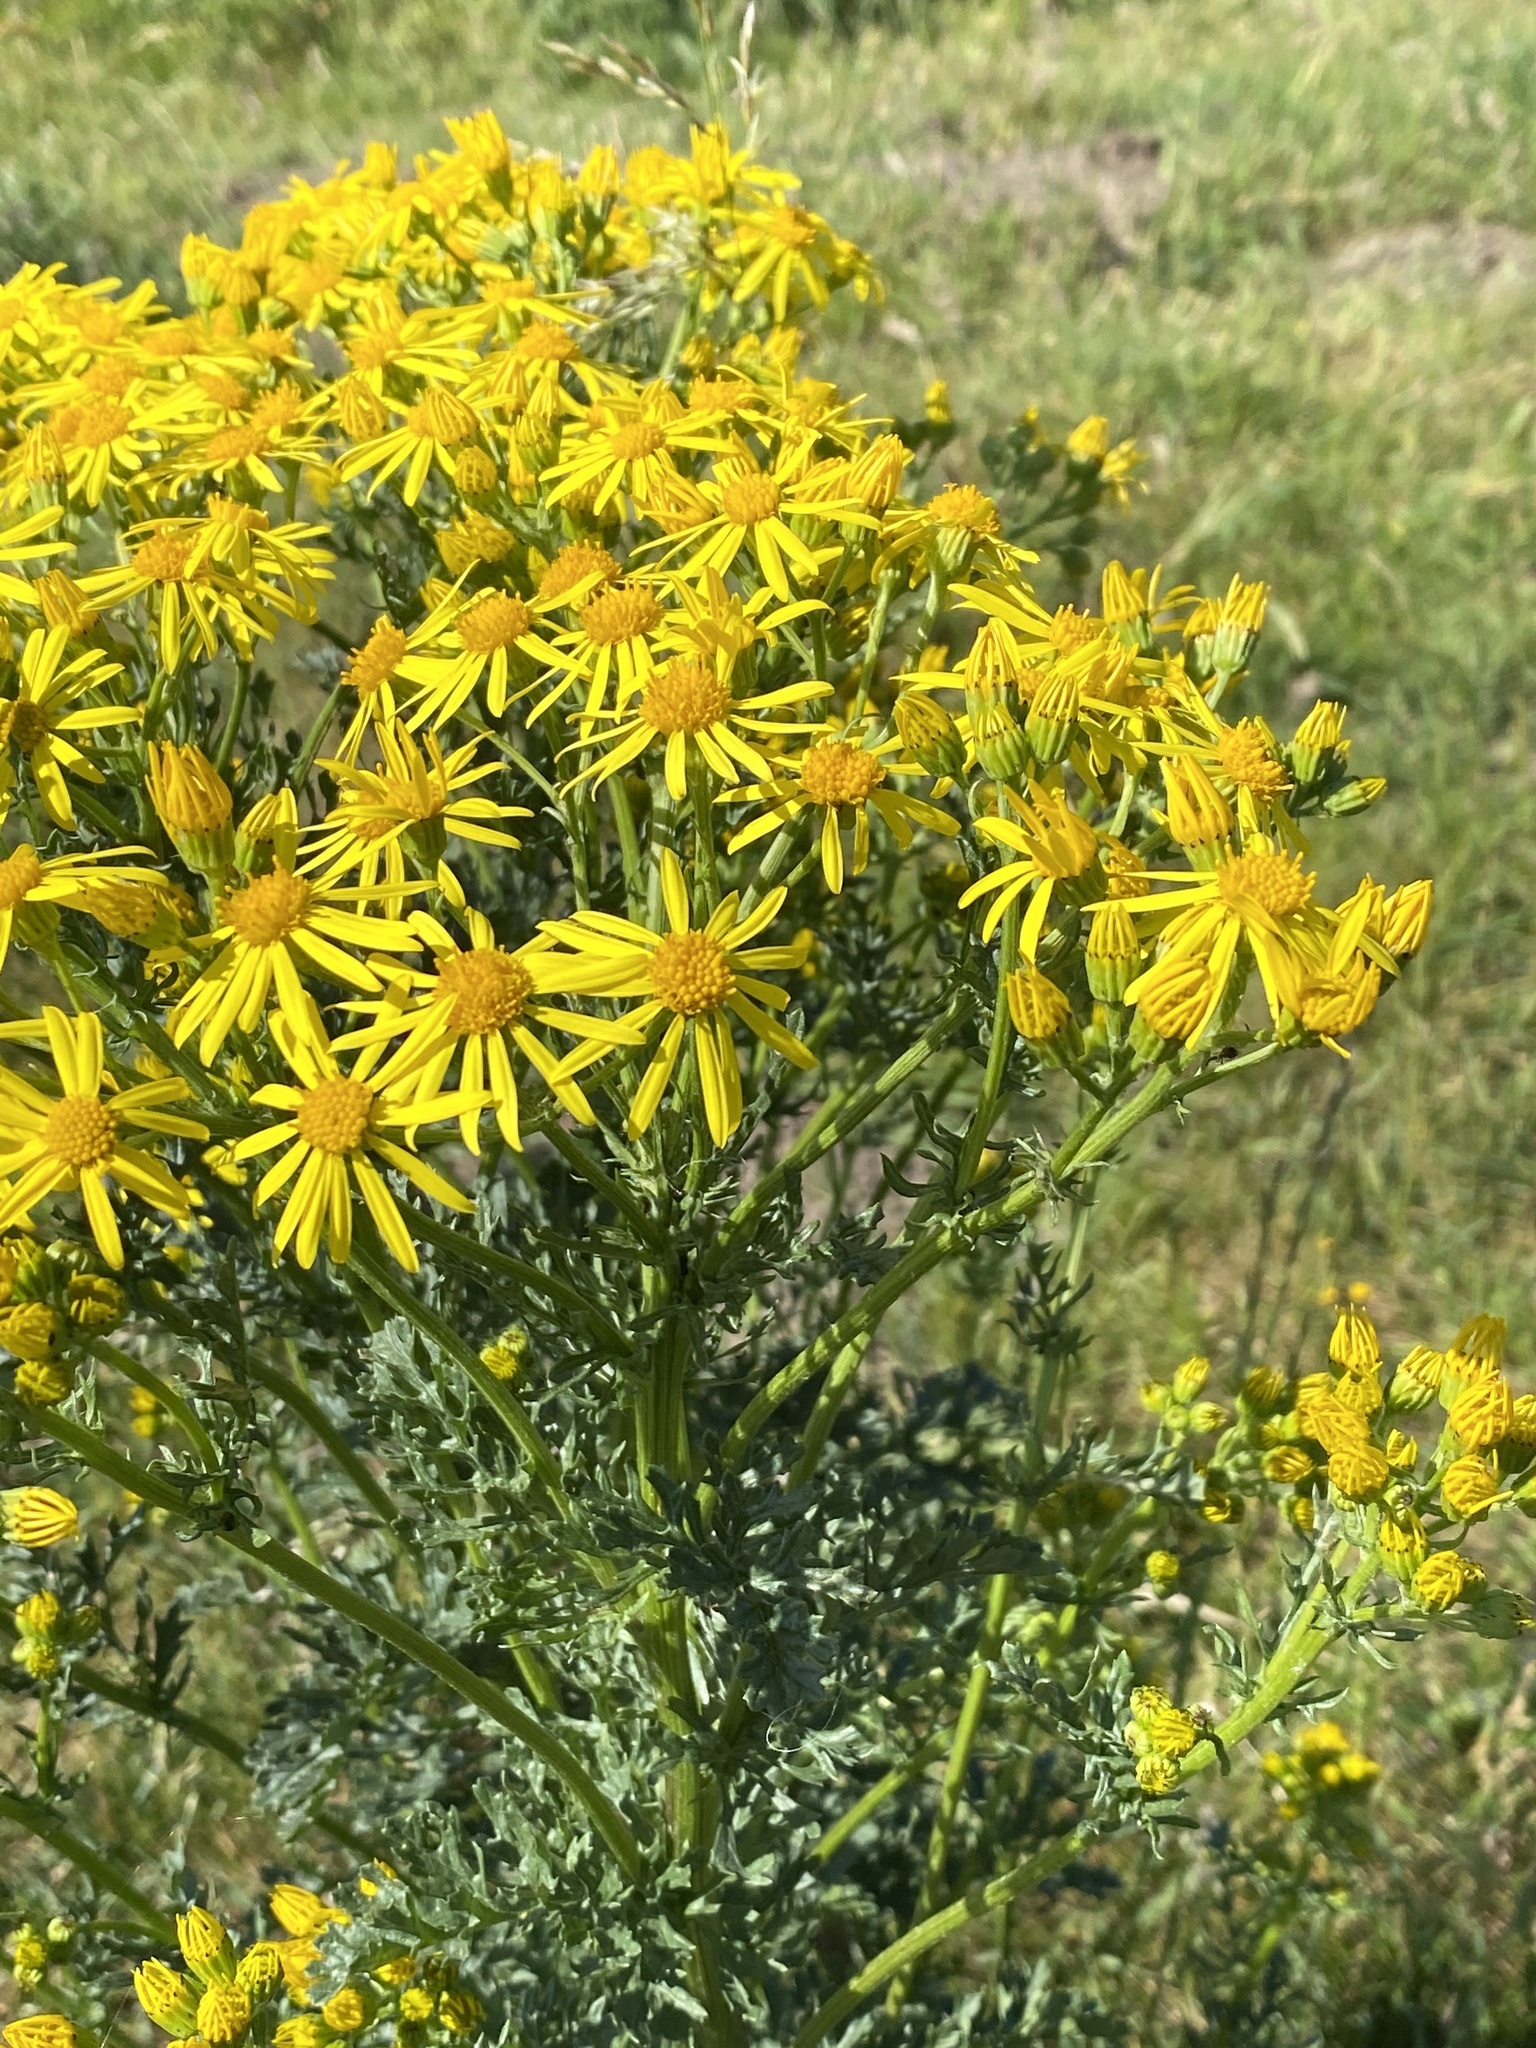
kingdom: Plantae
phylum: Tracheophyta
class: Magnoliopsida
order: Asterales
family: Asteraceae
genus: Jacobaea
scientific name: Jacobaea vulgaris
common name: Stinking willie
